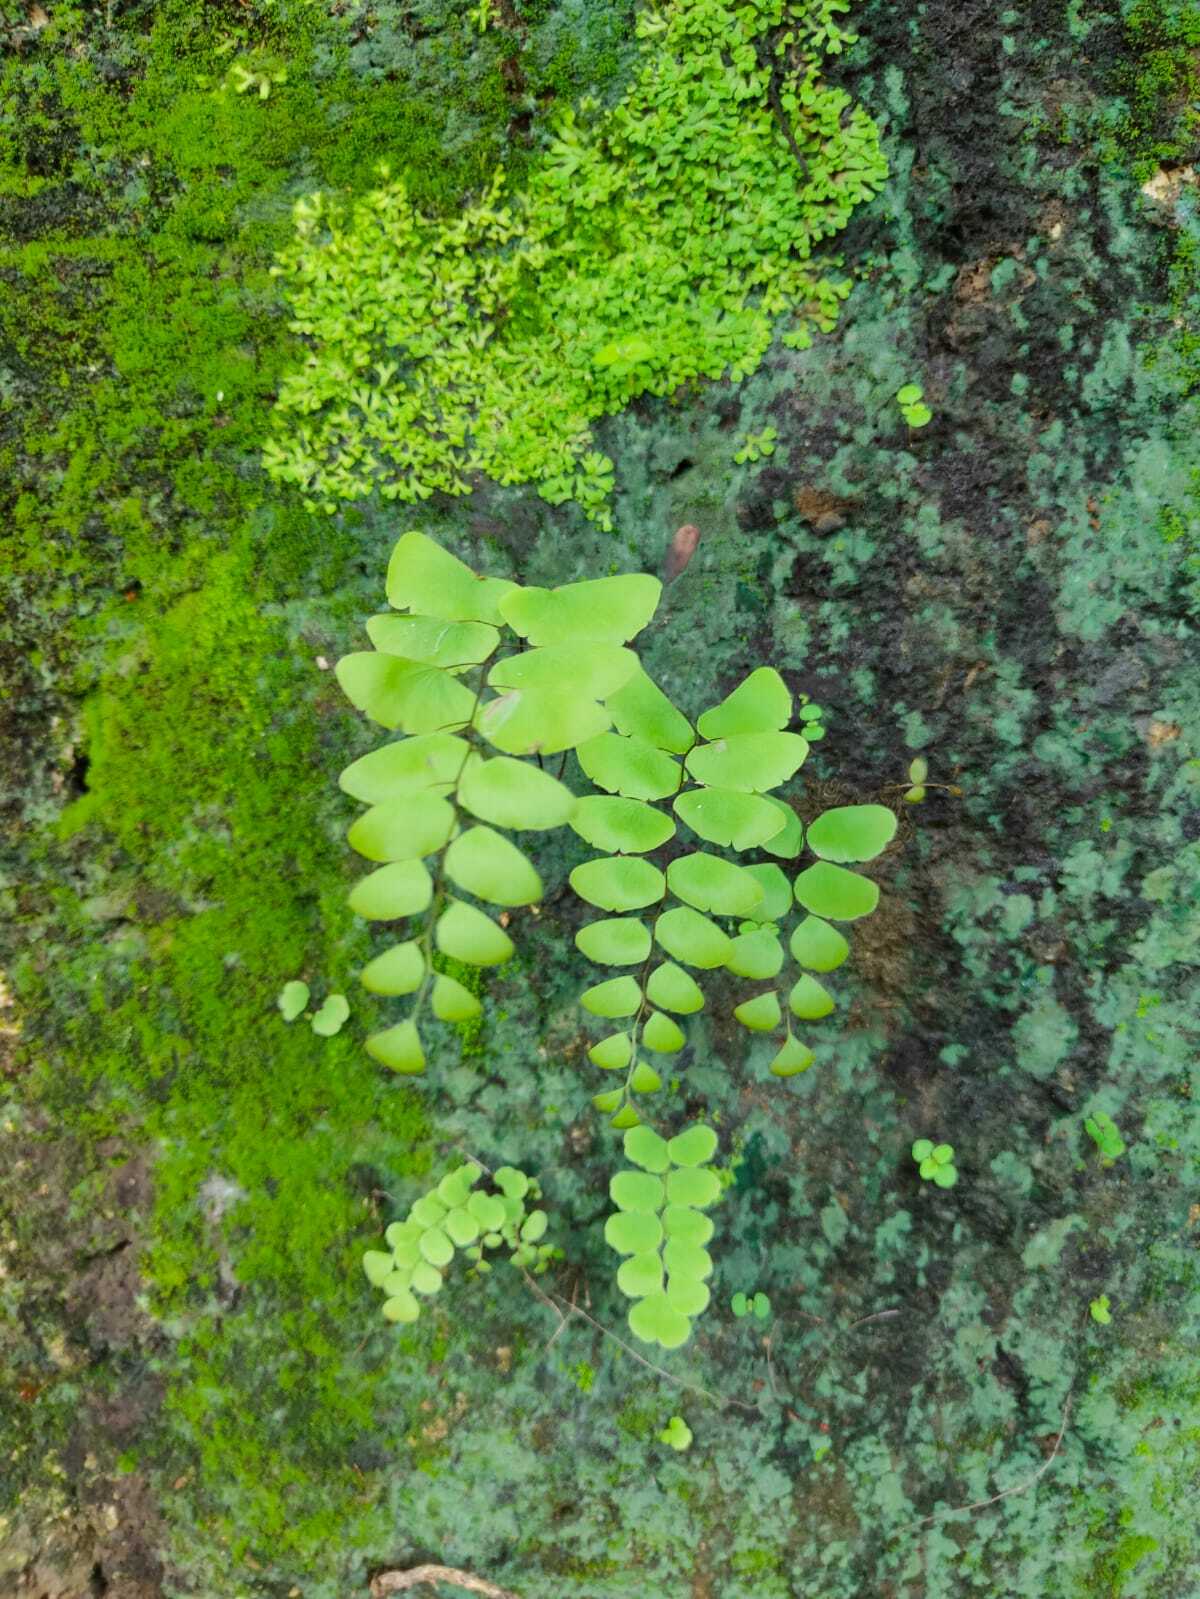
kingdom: Plantae
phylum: Tracheophyta
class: Polypodiopsida
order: Polypodiales
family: Pteridaceae
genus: Adiantum
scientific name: Adiantum philippense
